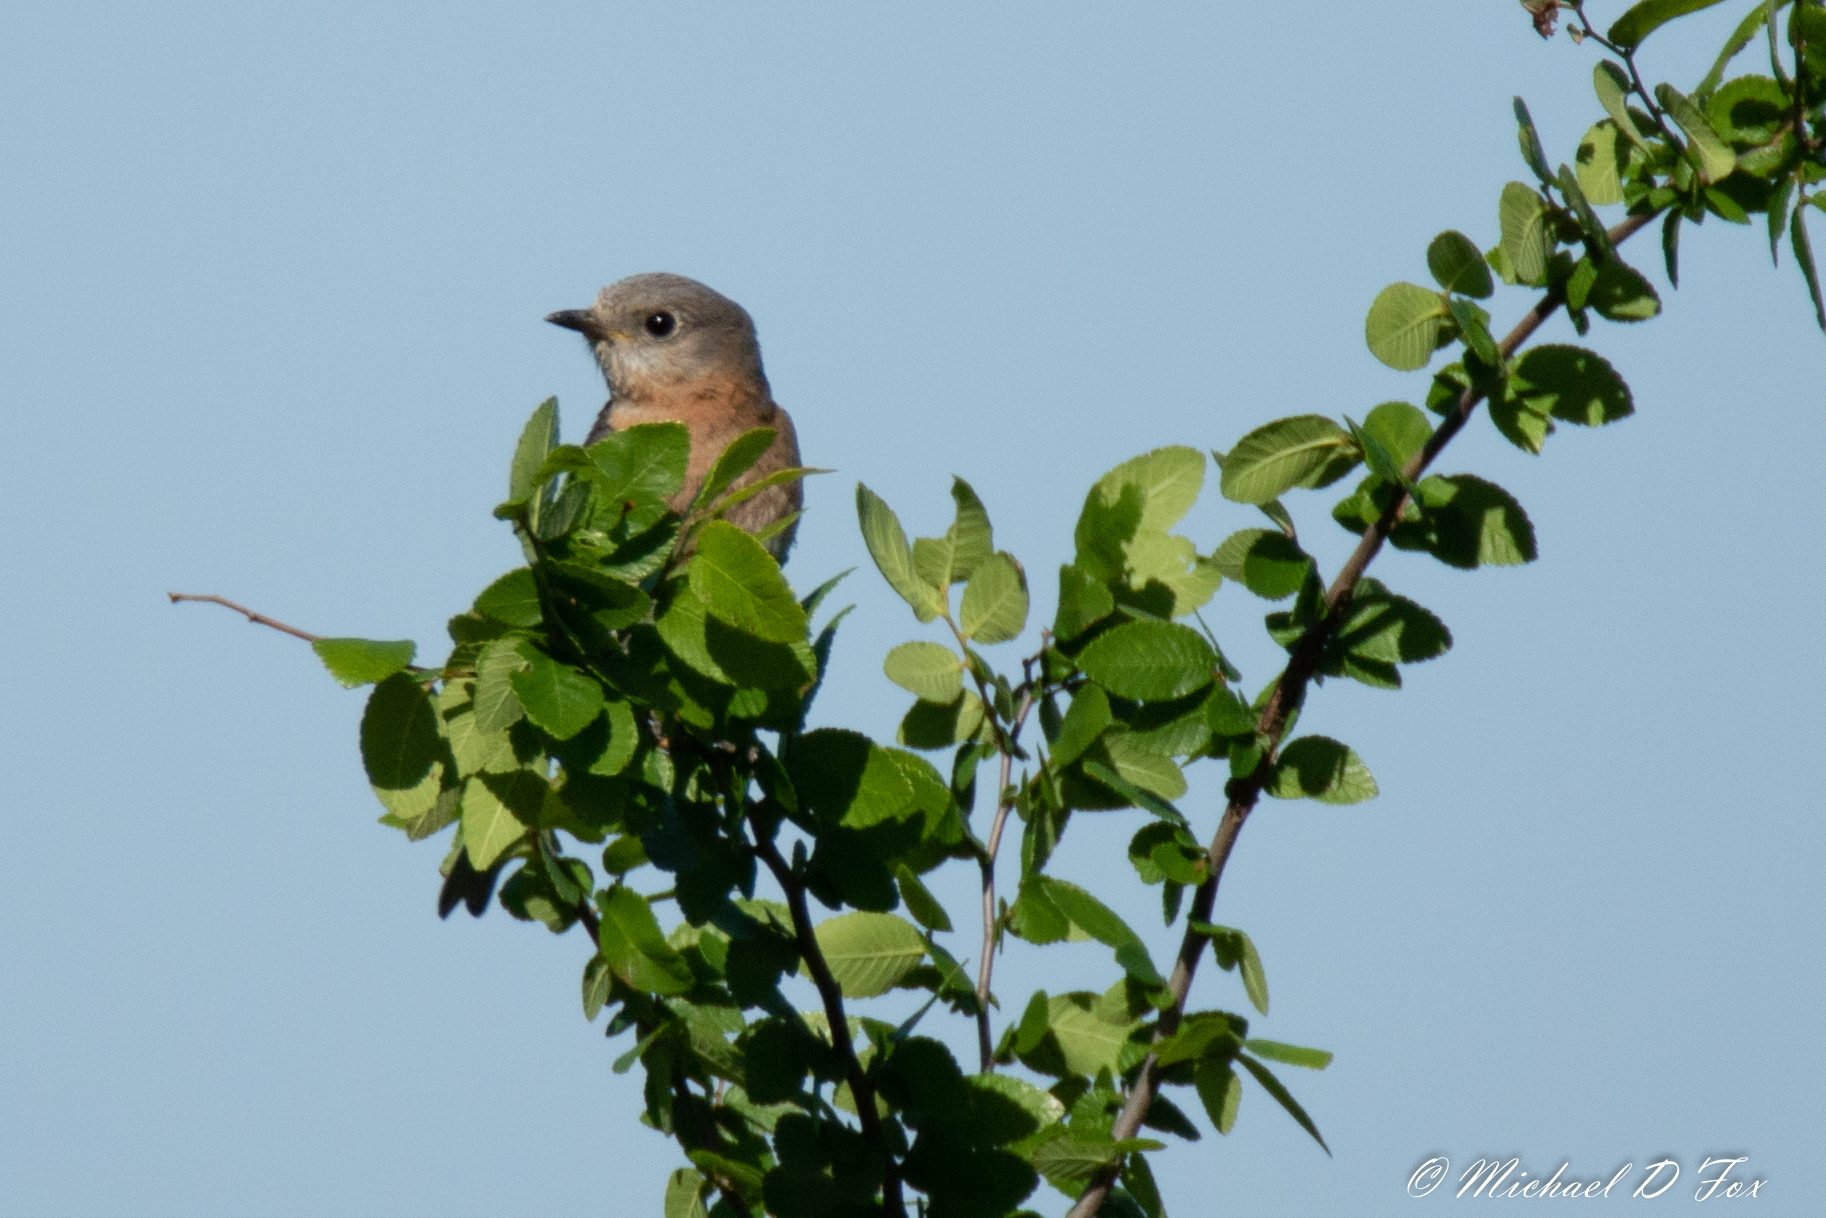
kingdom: Animalia
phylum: Chordata
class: Aves
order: Passeriformes
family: Turdidae
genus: Sialia
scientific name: Sialia sialis
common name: Eastern bluebird
